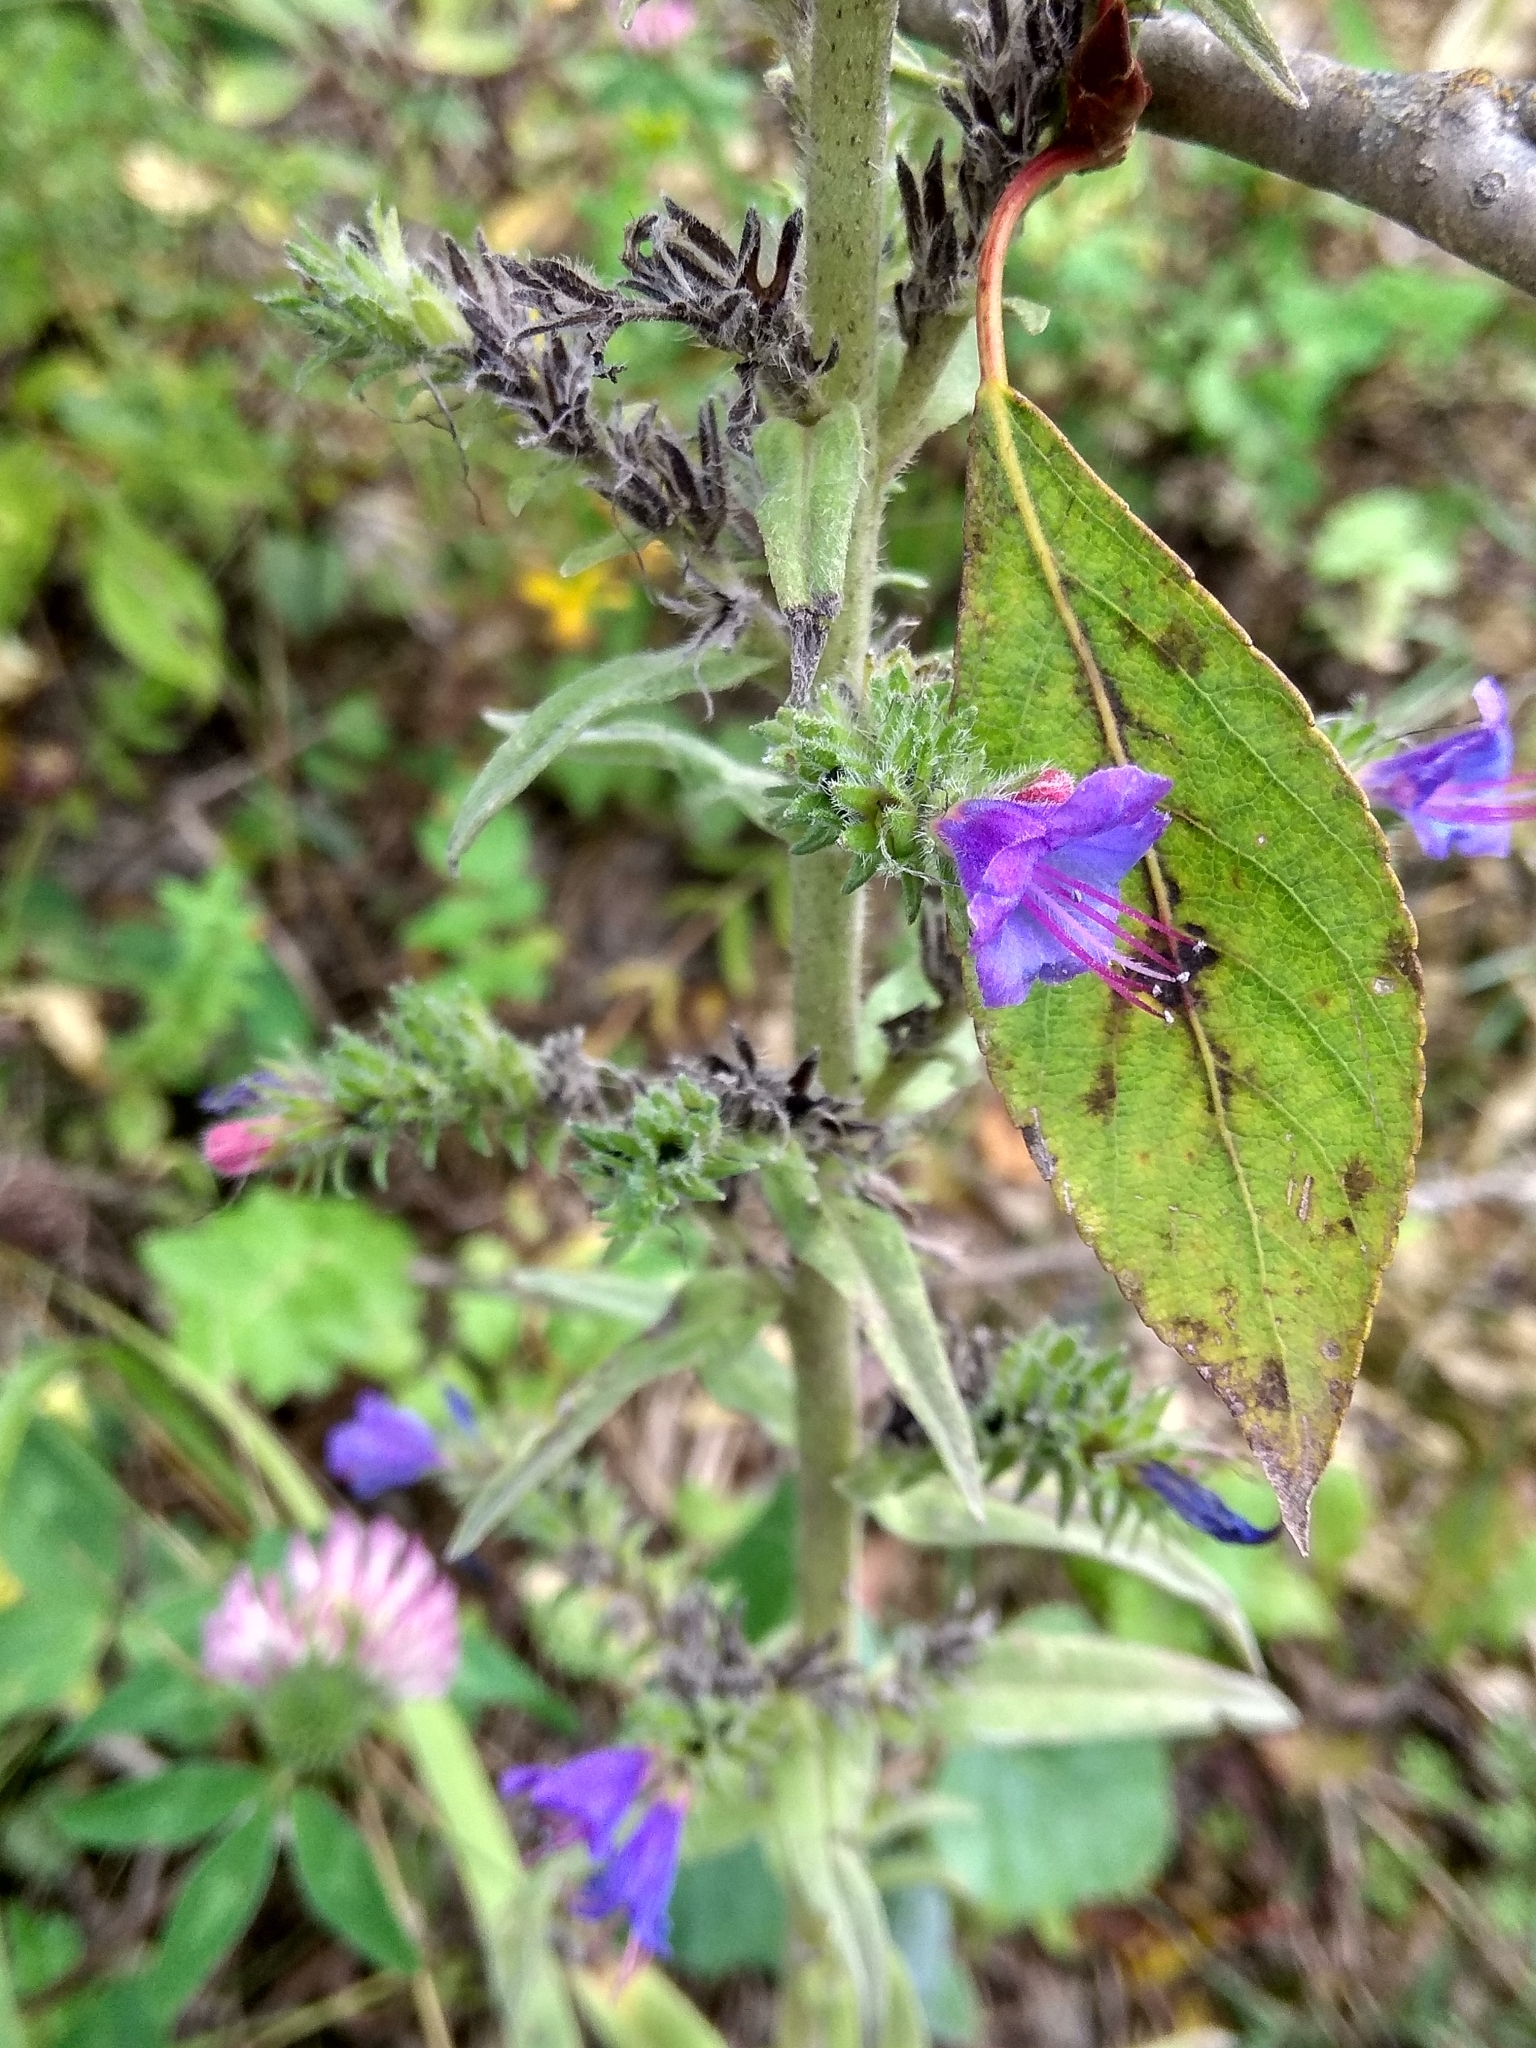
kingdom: Plantae
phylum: Tracheophyta
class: Magnoliopsida
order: Boraginales
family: Boraginaceae
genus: Echium
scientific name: Echium vulgare
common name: Common viper's bugloss
